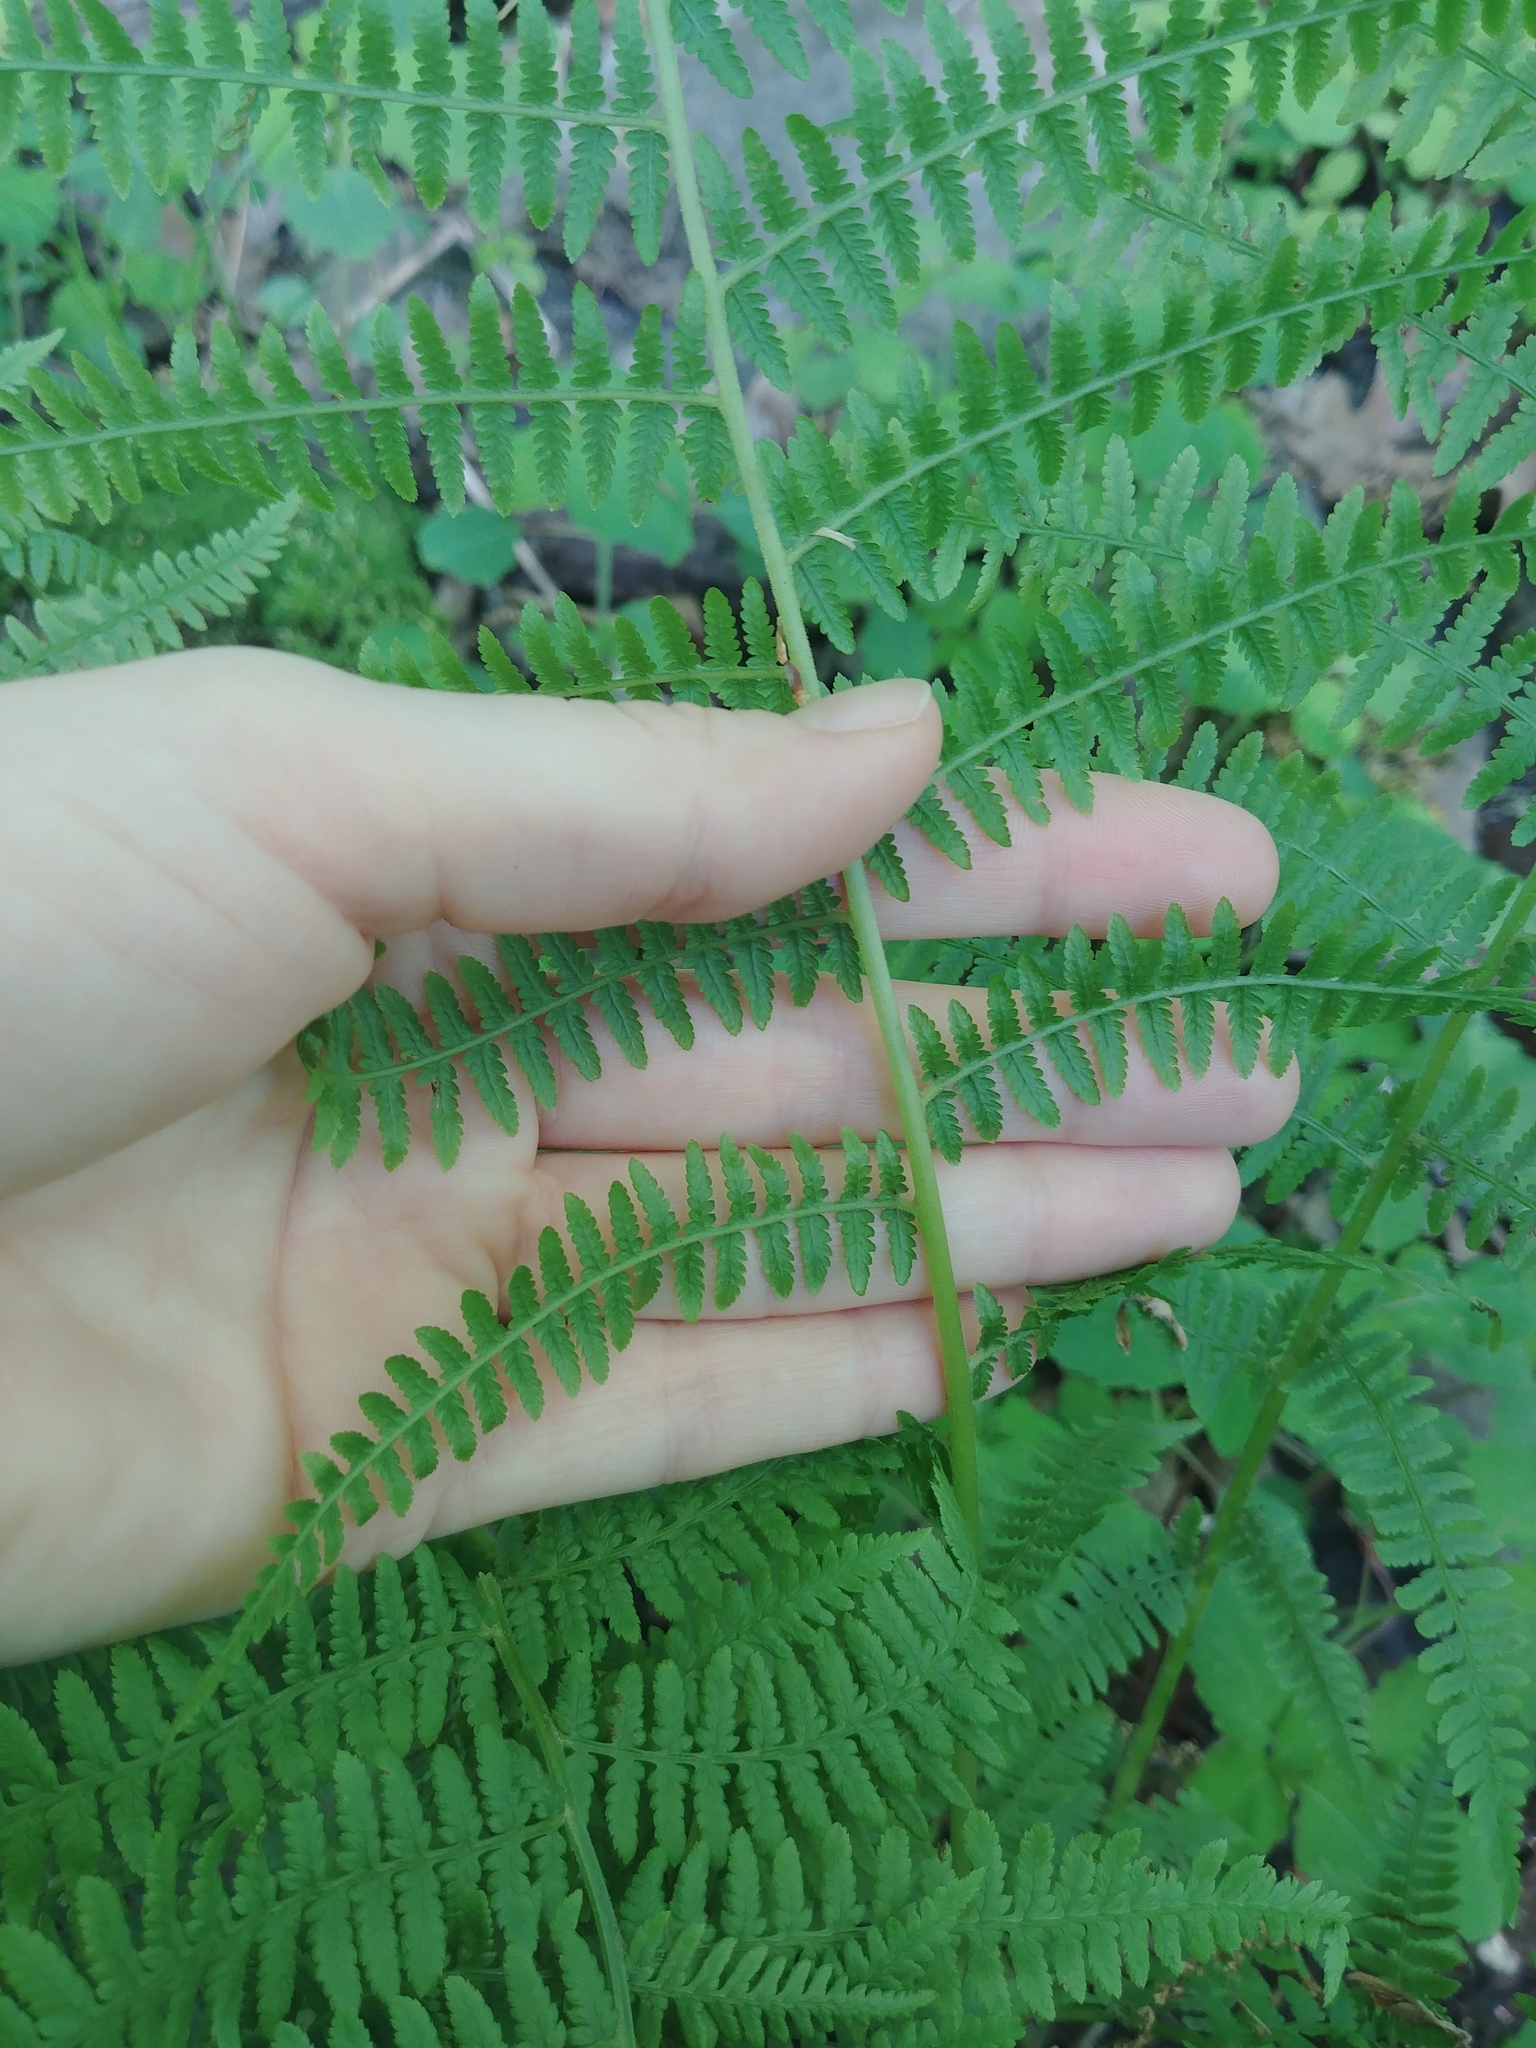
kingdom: Plantae
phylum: Tracheophyta
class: Polypodiopsida
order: Polypodiales
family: Athyriaceae
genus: Athyrium
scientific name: Athyrium angustum
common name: Northern lady fern
